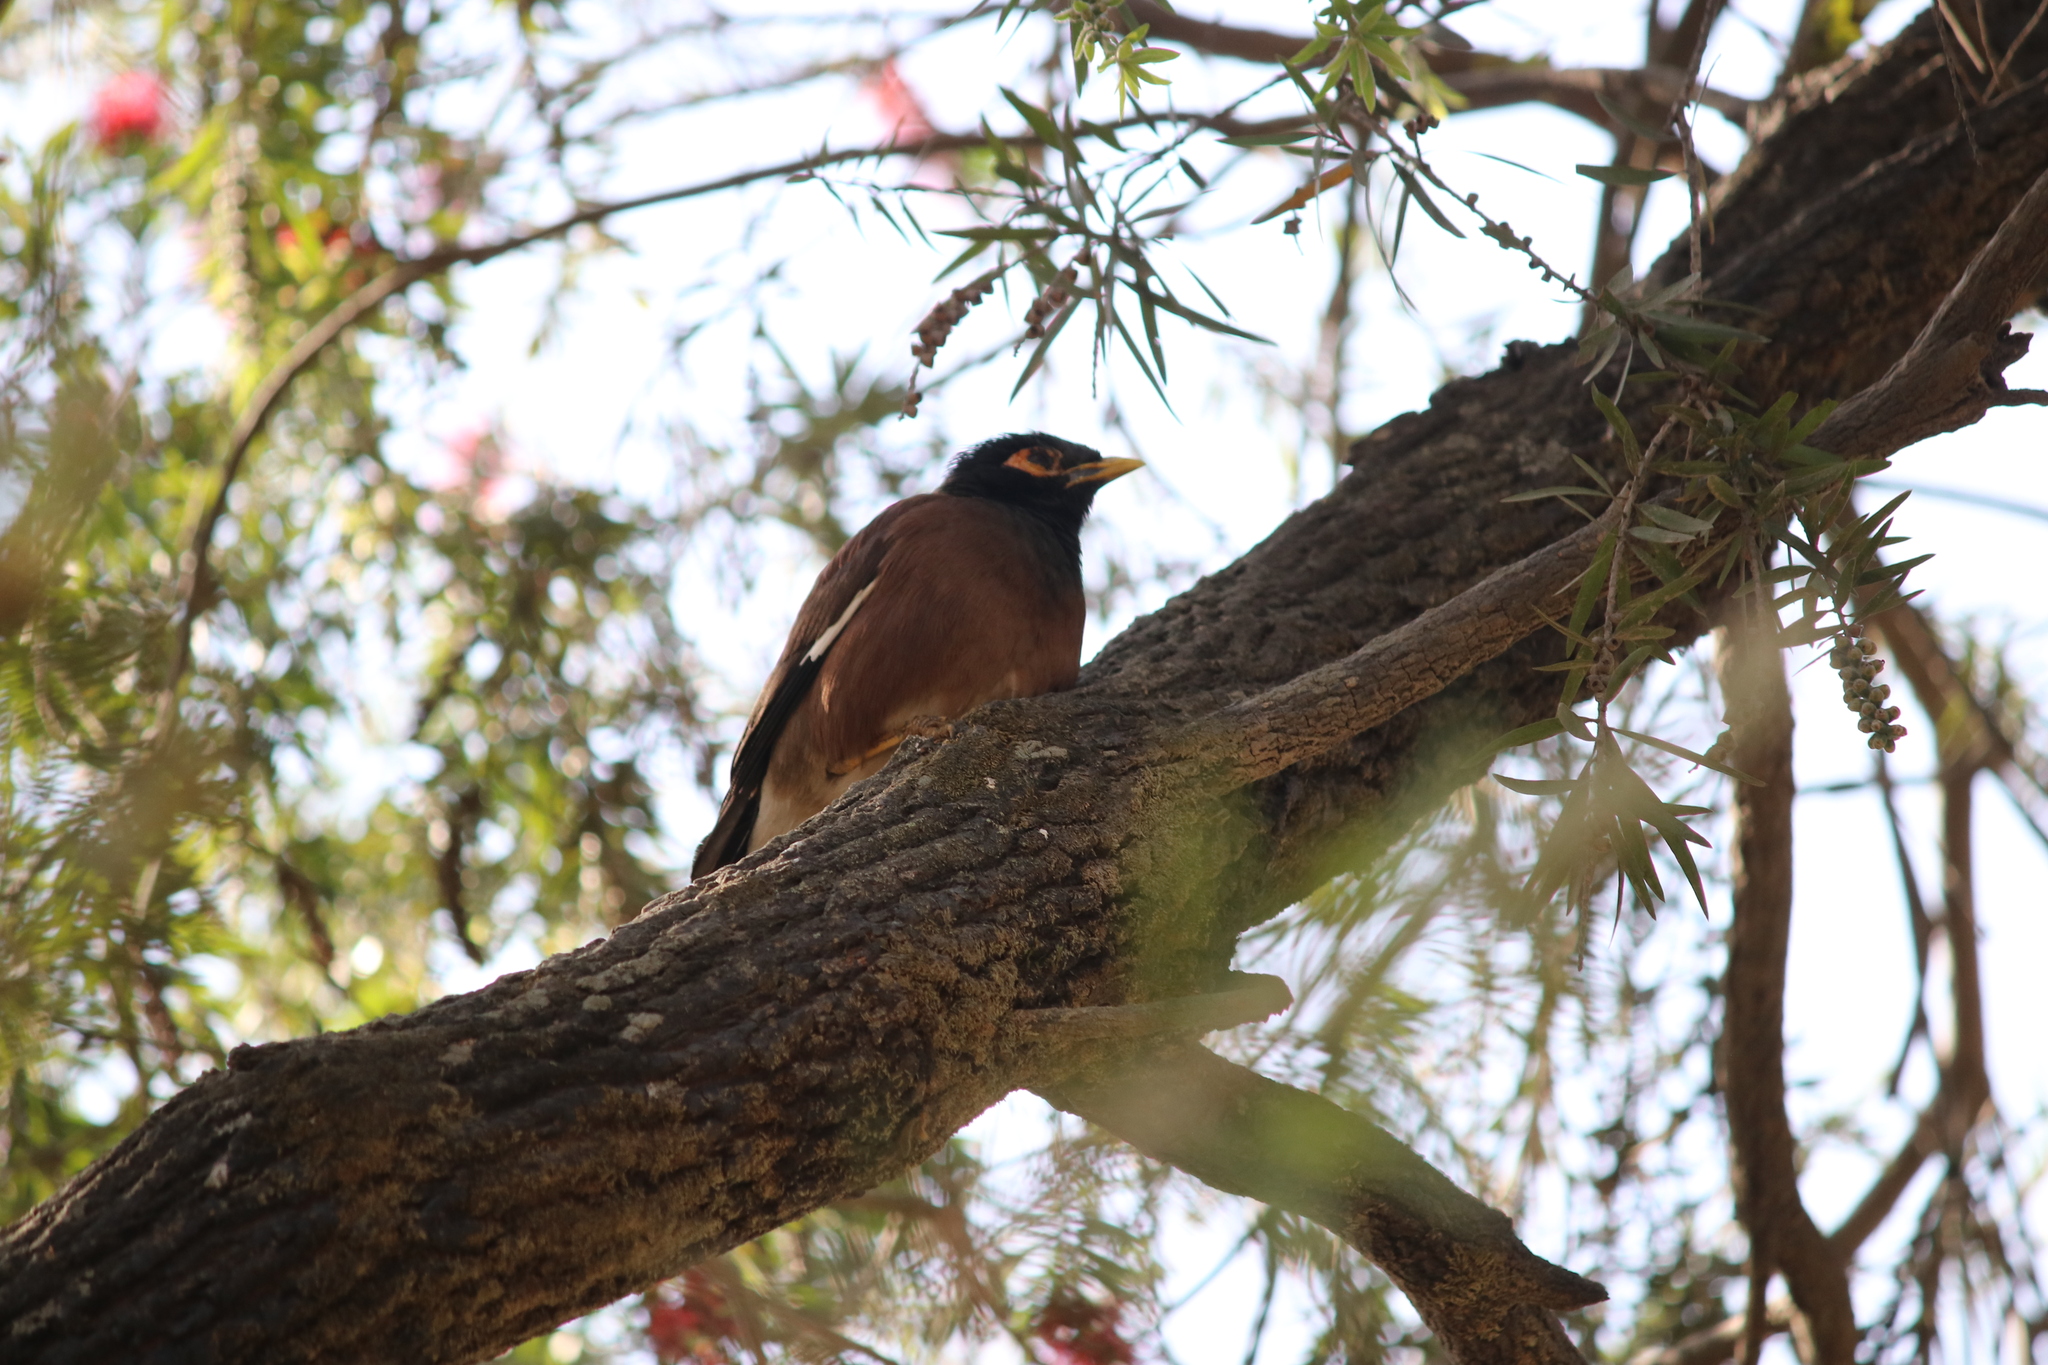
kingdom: Animalia
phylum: Chordata
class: Aves
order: Passeriformes
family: Sturnidae
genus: Acridotheres
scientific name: Acridotheres tristis
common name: Common myna
